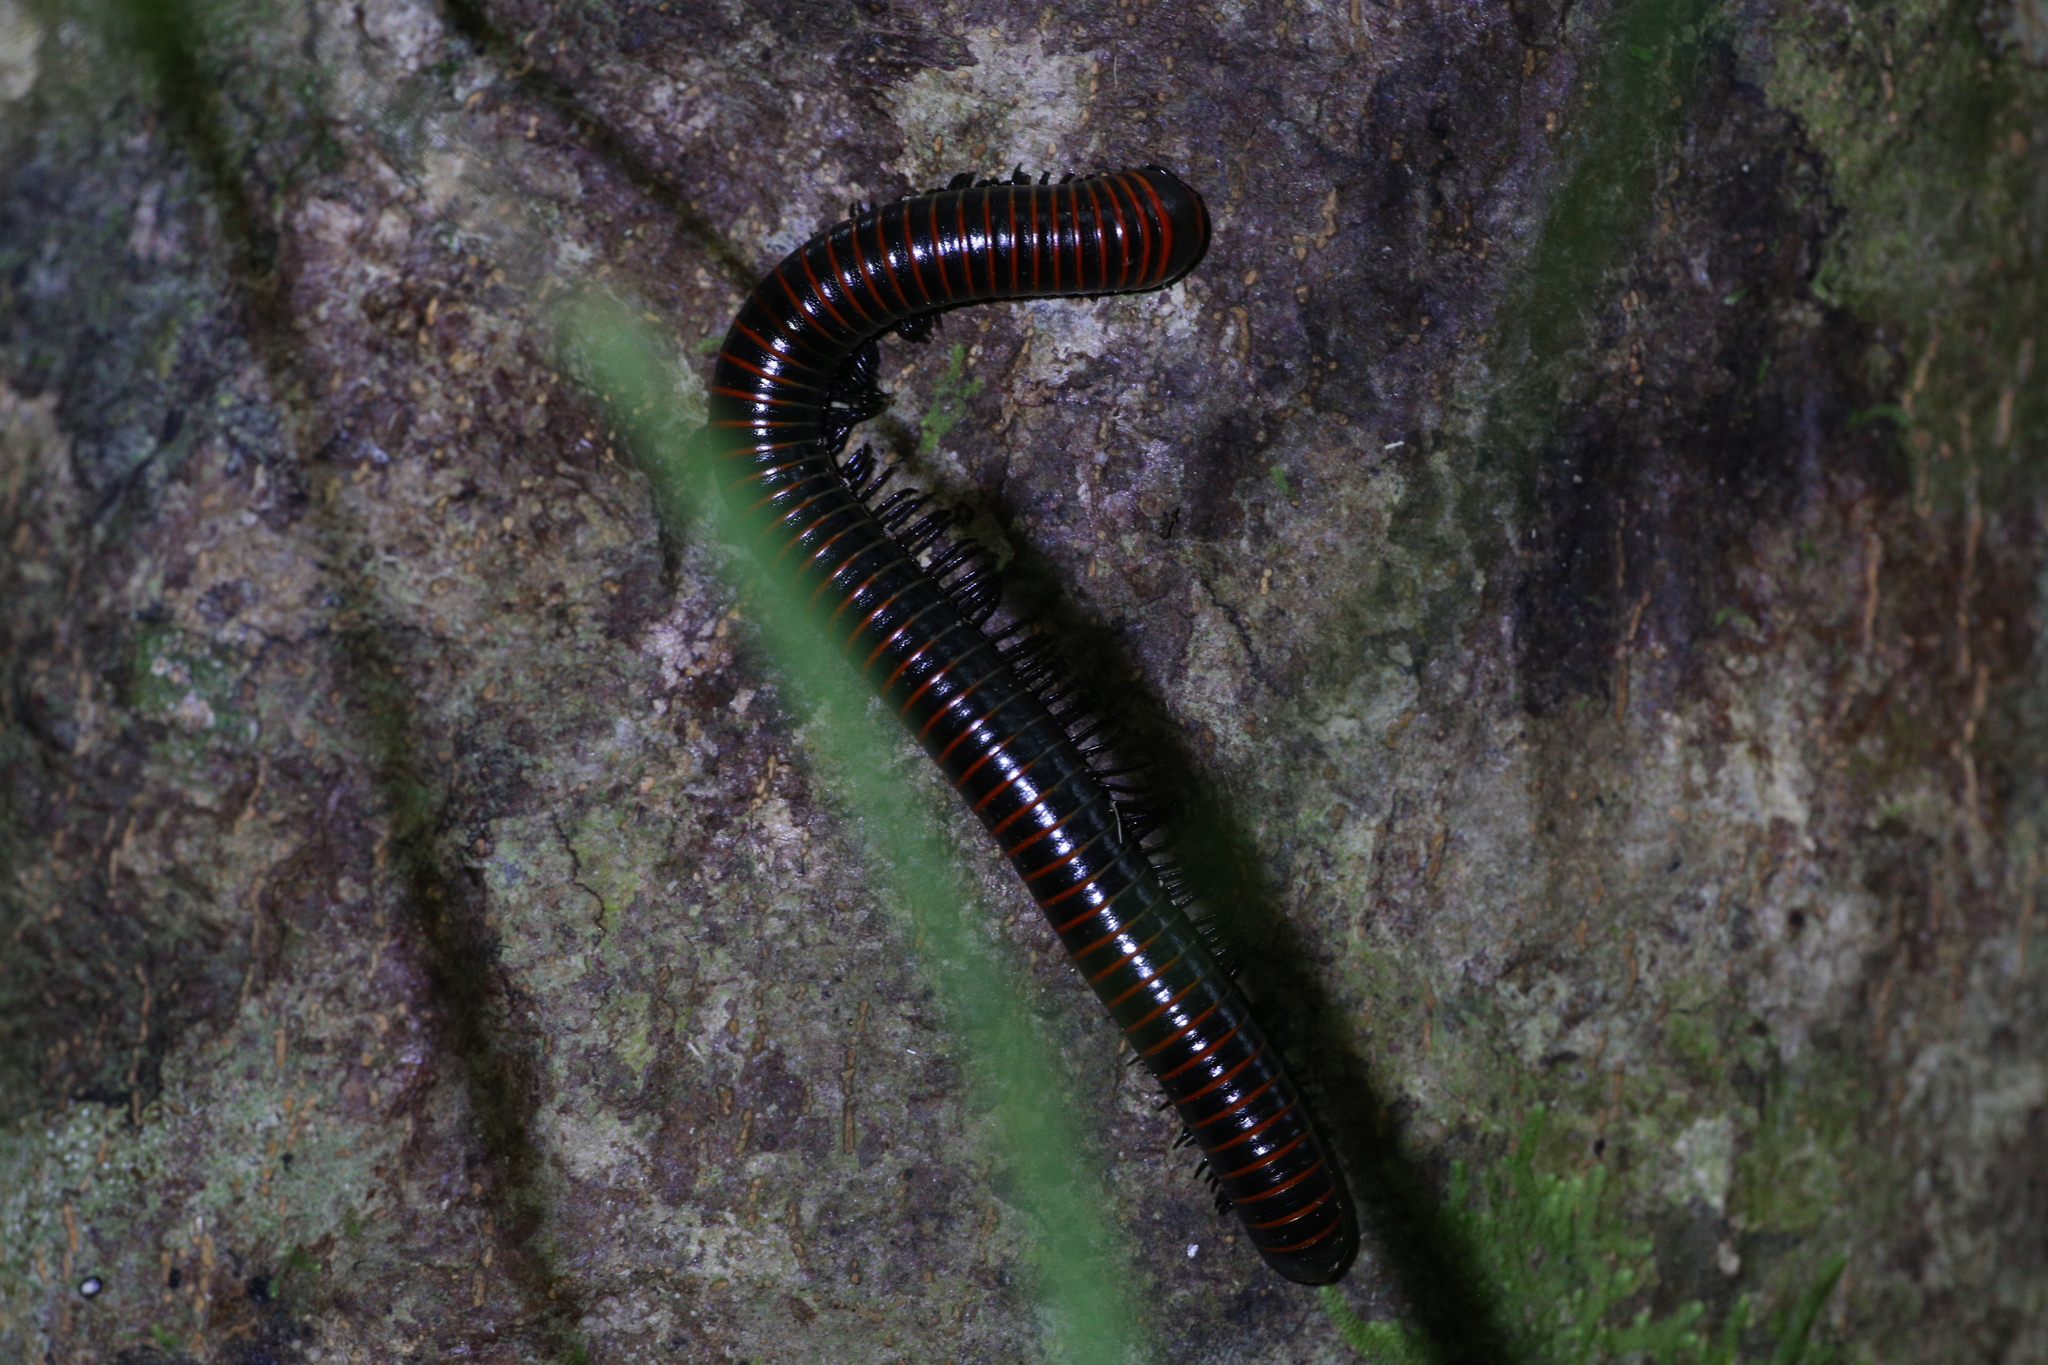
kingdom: Animalia
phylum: Arthropoda
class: Diplopoda
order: Spirobolida
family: Spirobolidae
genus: Spirobolus
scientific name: Spirobolus
